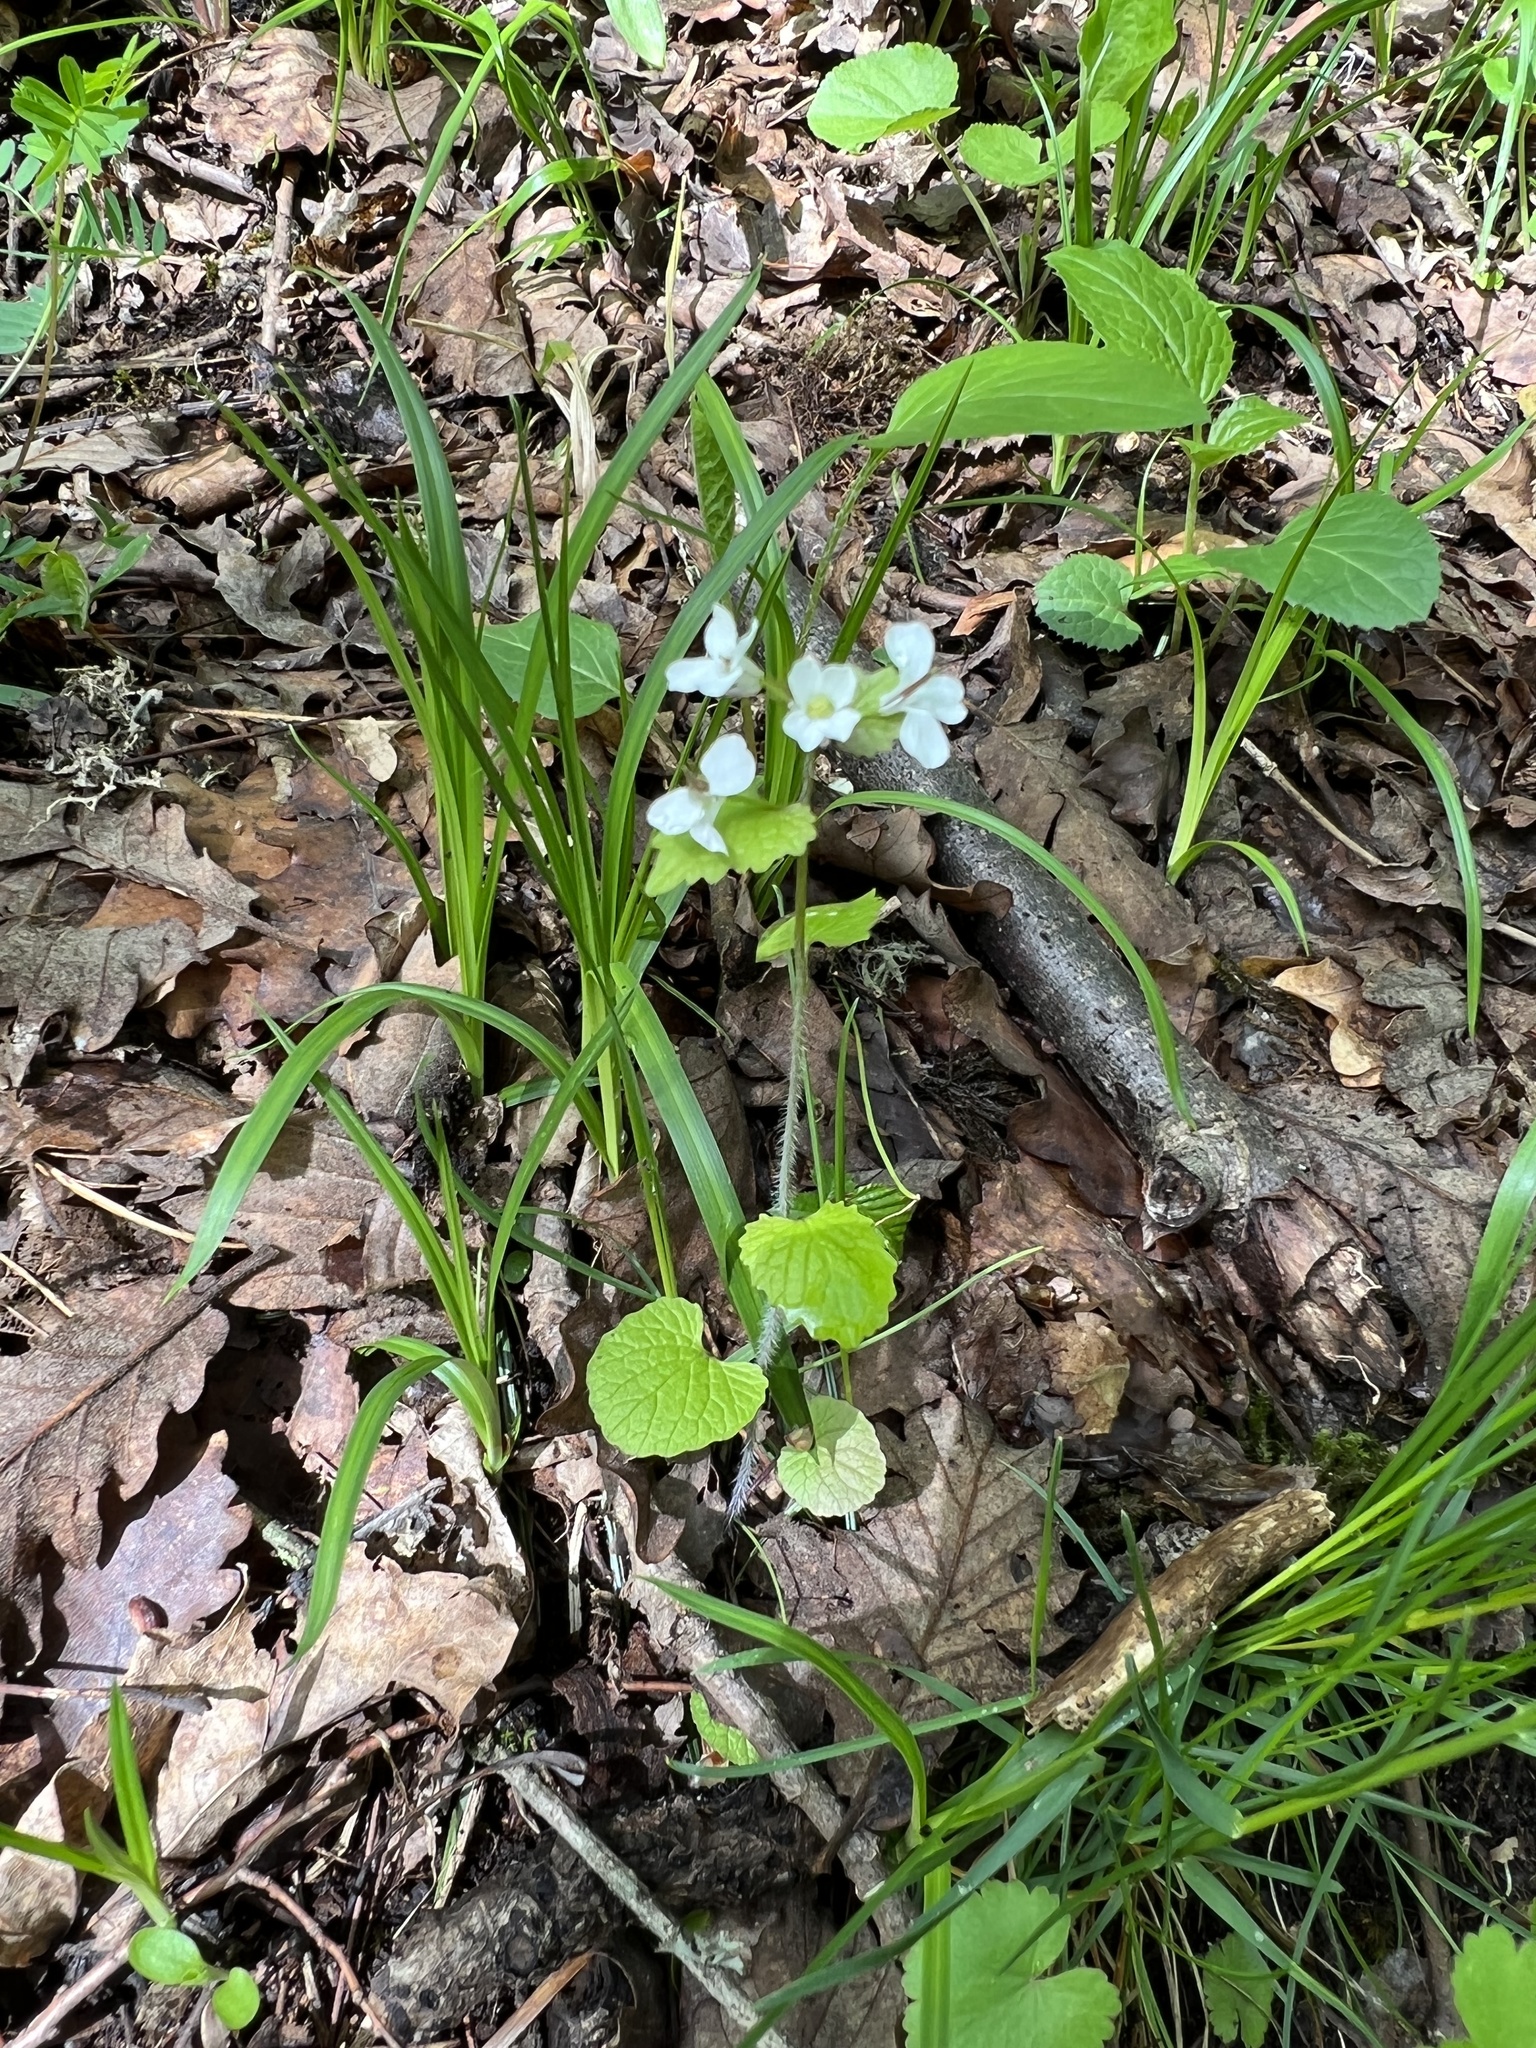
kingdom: Plantae
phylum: Tracheophyta
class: Magnoliopsida
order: Brassicales
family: Brassicaceae
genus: Alliaria
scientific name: Alliaria petiolata
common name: Garlic mustard
